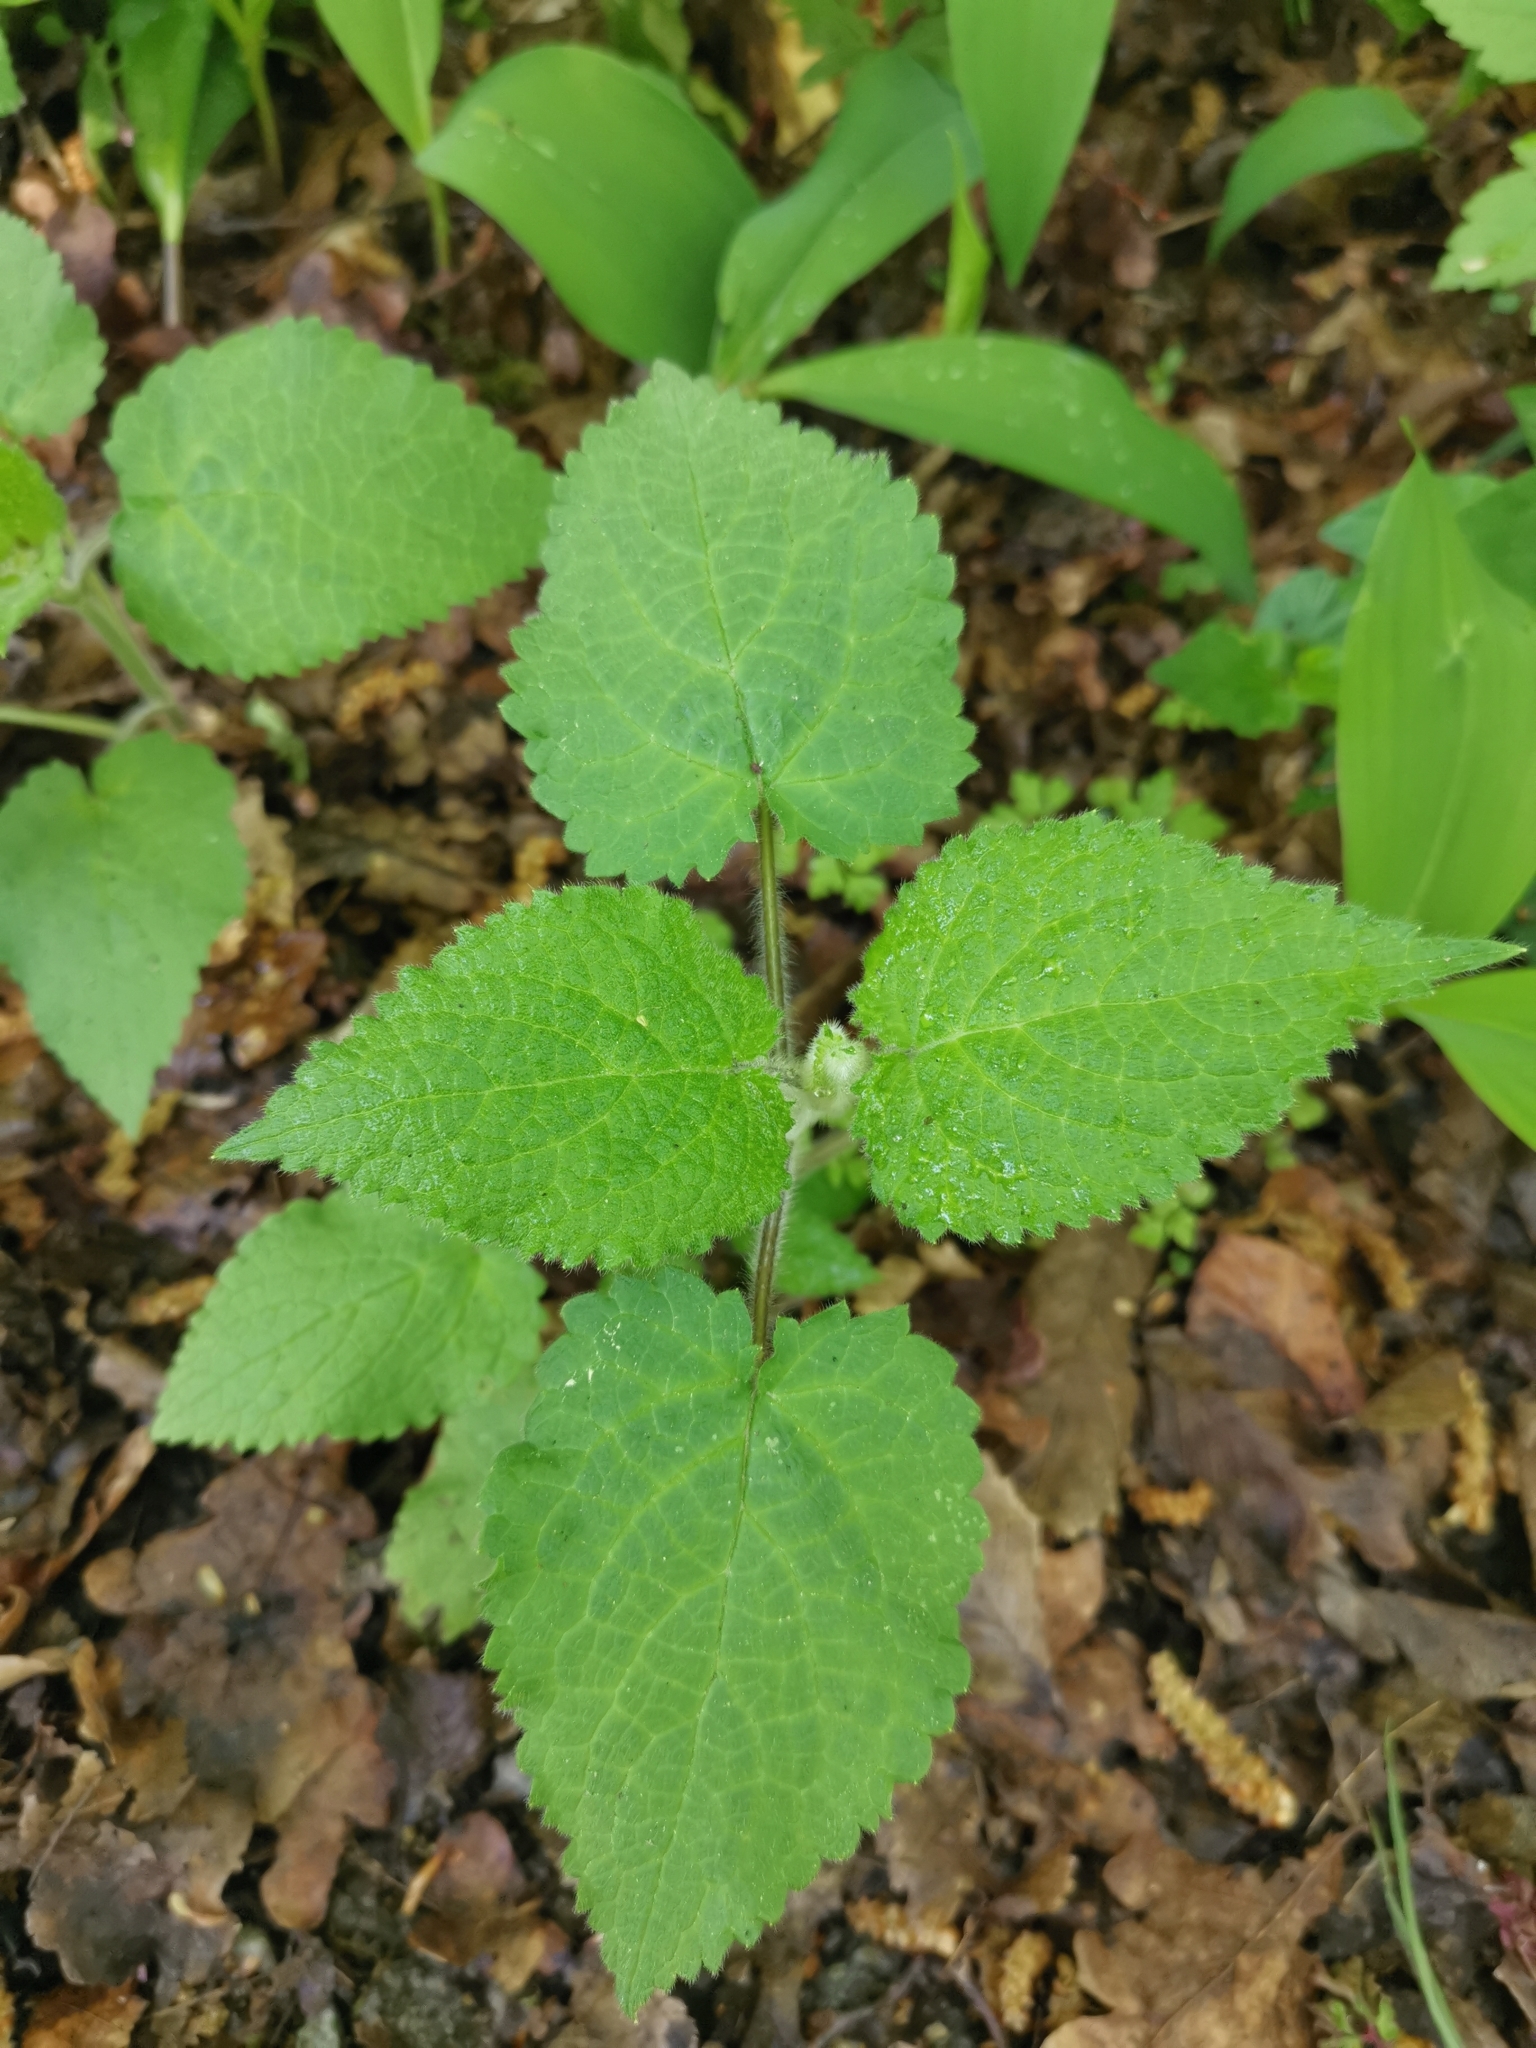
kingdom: Plantae
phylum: Tracheophyta
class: Magnoliopsida
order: Lamiales
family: Lamiaceae
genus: Stachys
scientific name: Stachys sylvatica
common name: Hedge woundwort
